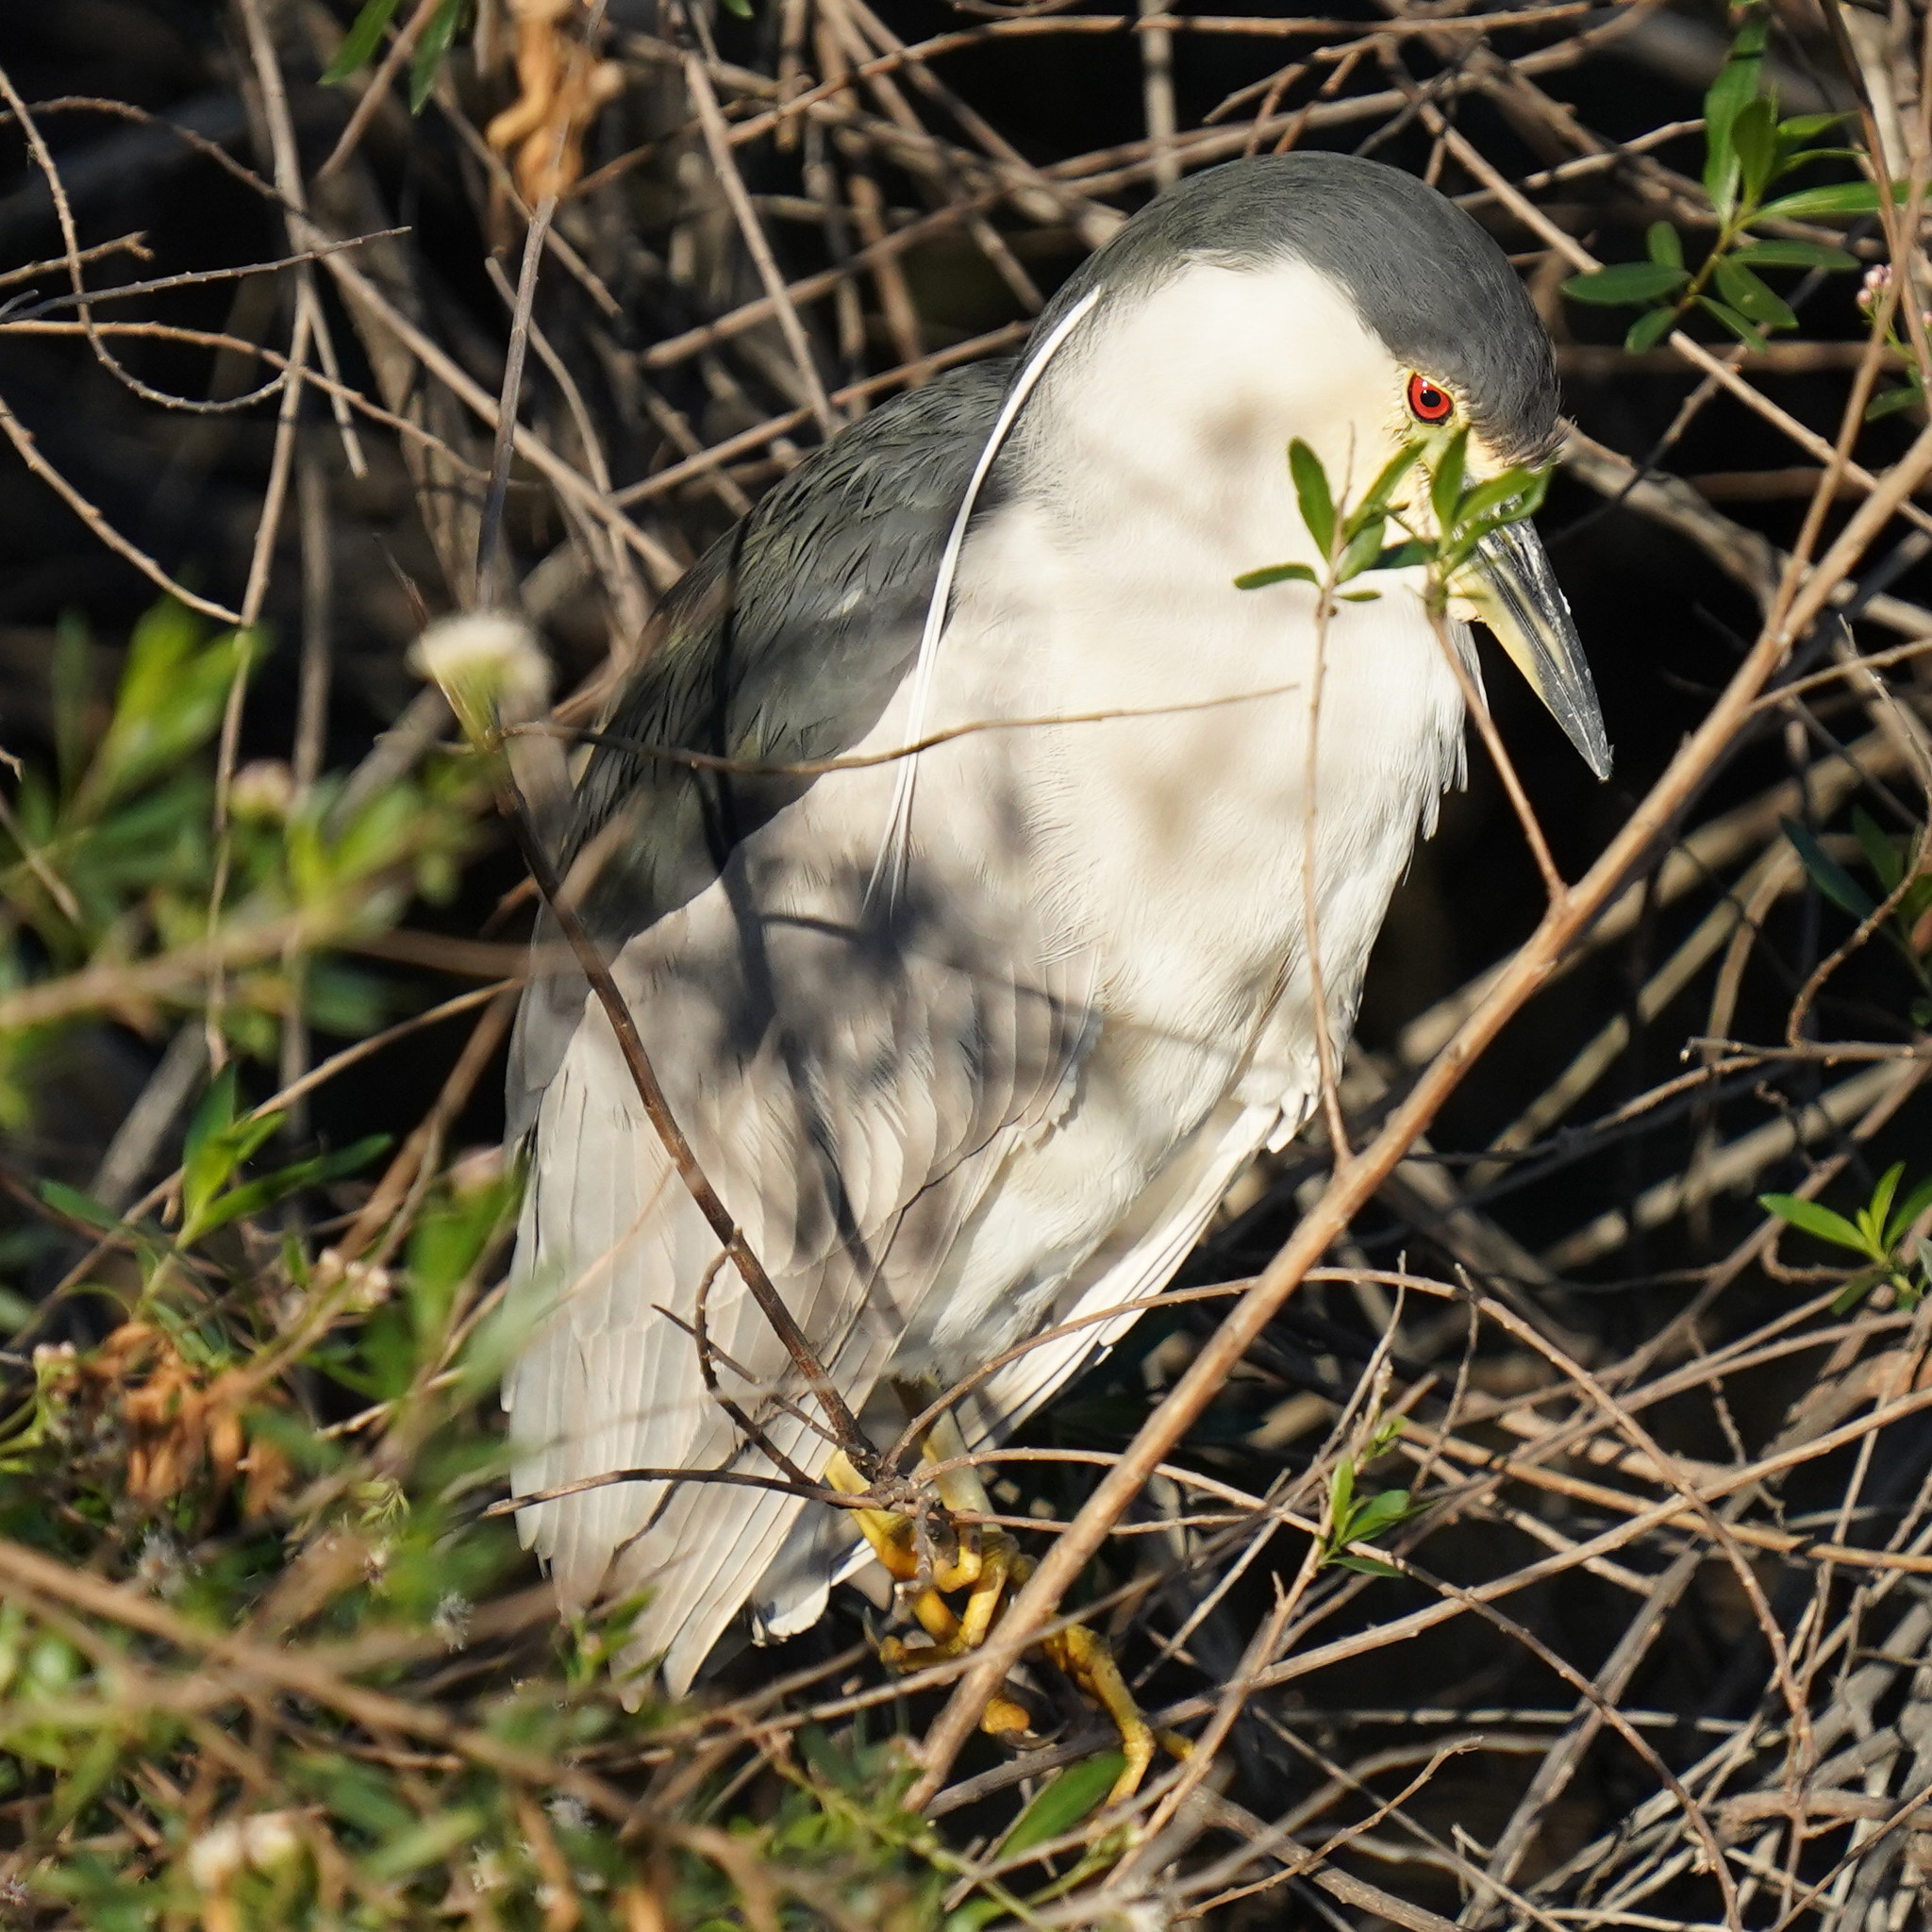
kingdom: Animalia
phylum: Chordata
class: Aves
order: Pelecaniformes
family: Ardeidae
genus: Nycticorax
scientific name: Nycticorax nycticorax
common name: Black-crowned night heron
